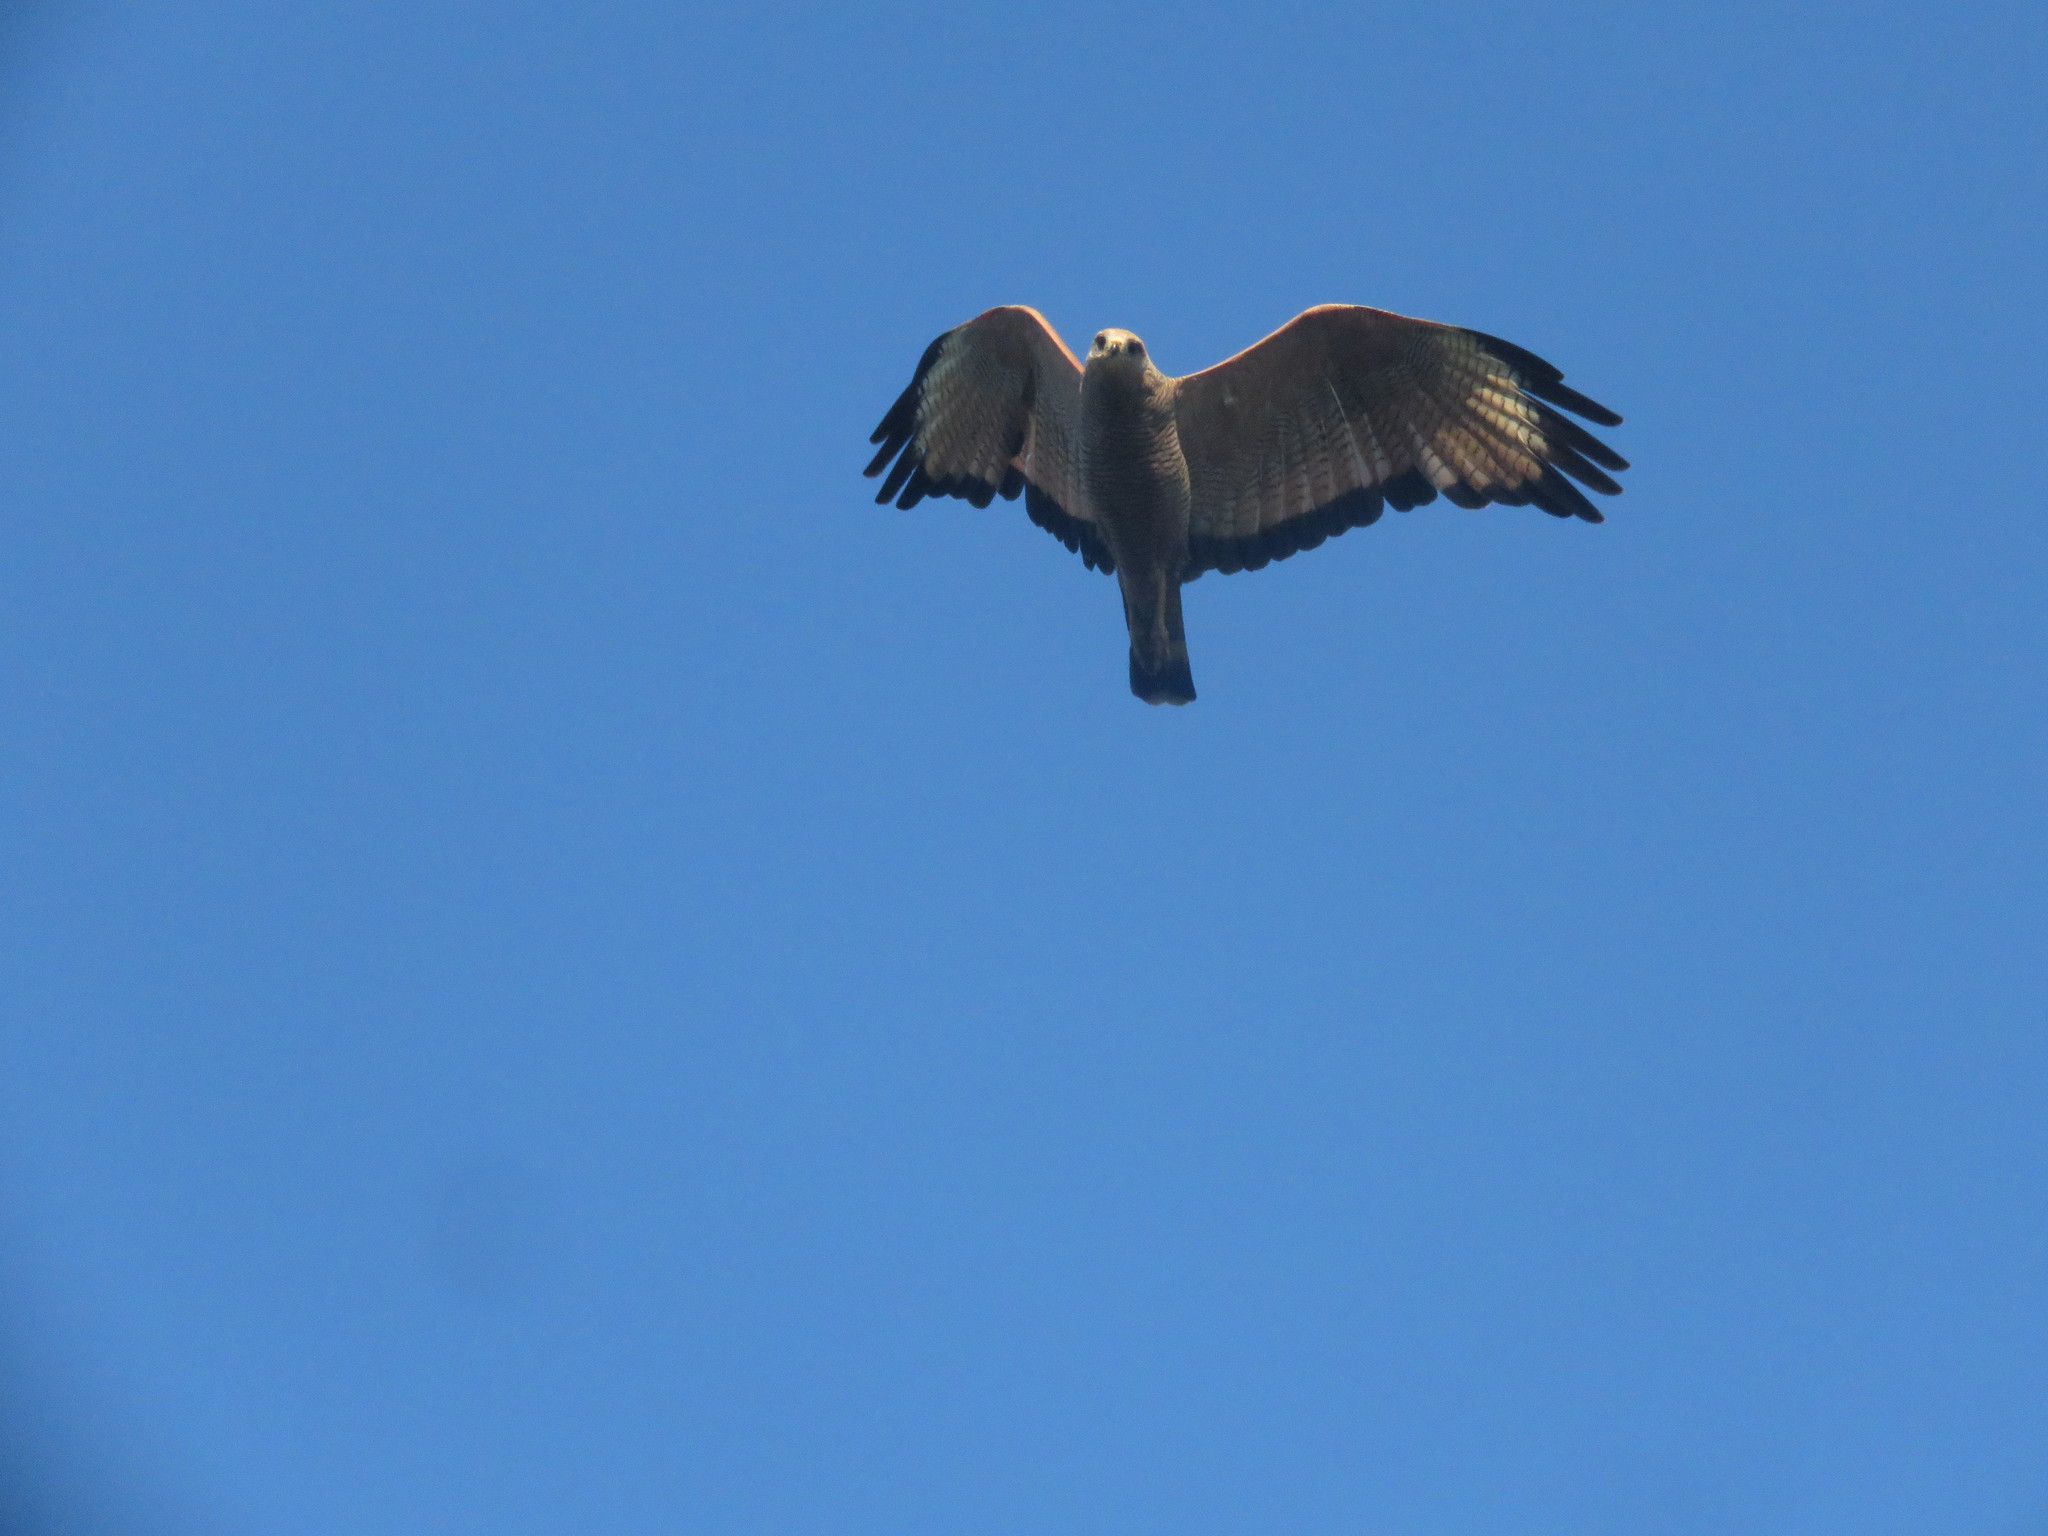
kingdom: Animalia
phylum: Chordata
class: Aves
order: Accipitriformes
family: Accipitridae
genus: Buteogallus
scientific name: Buteogallus meridionalis
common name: Savanna hawk
